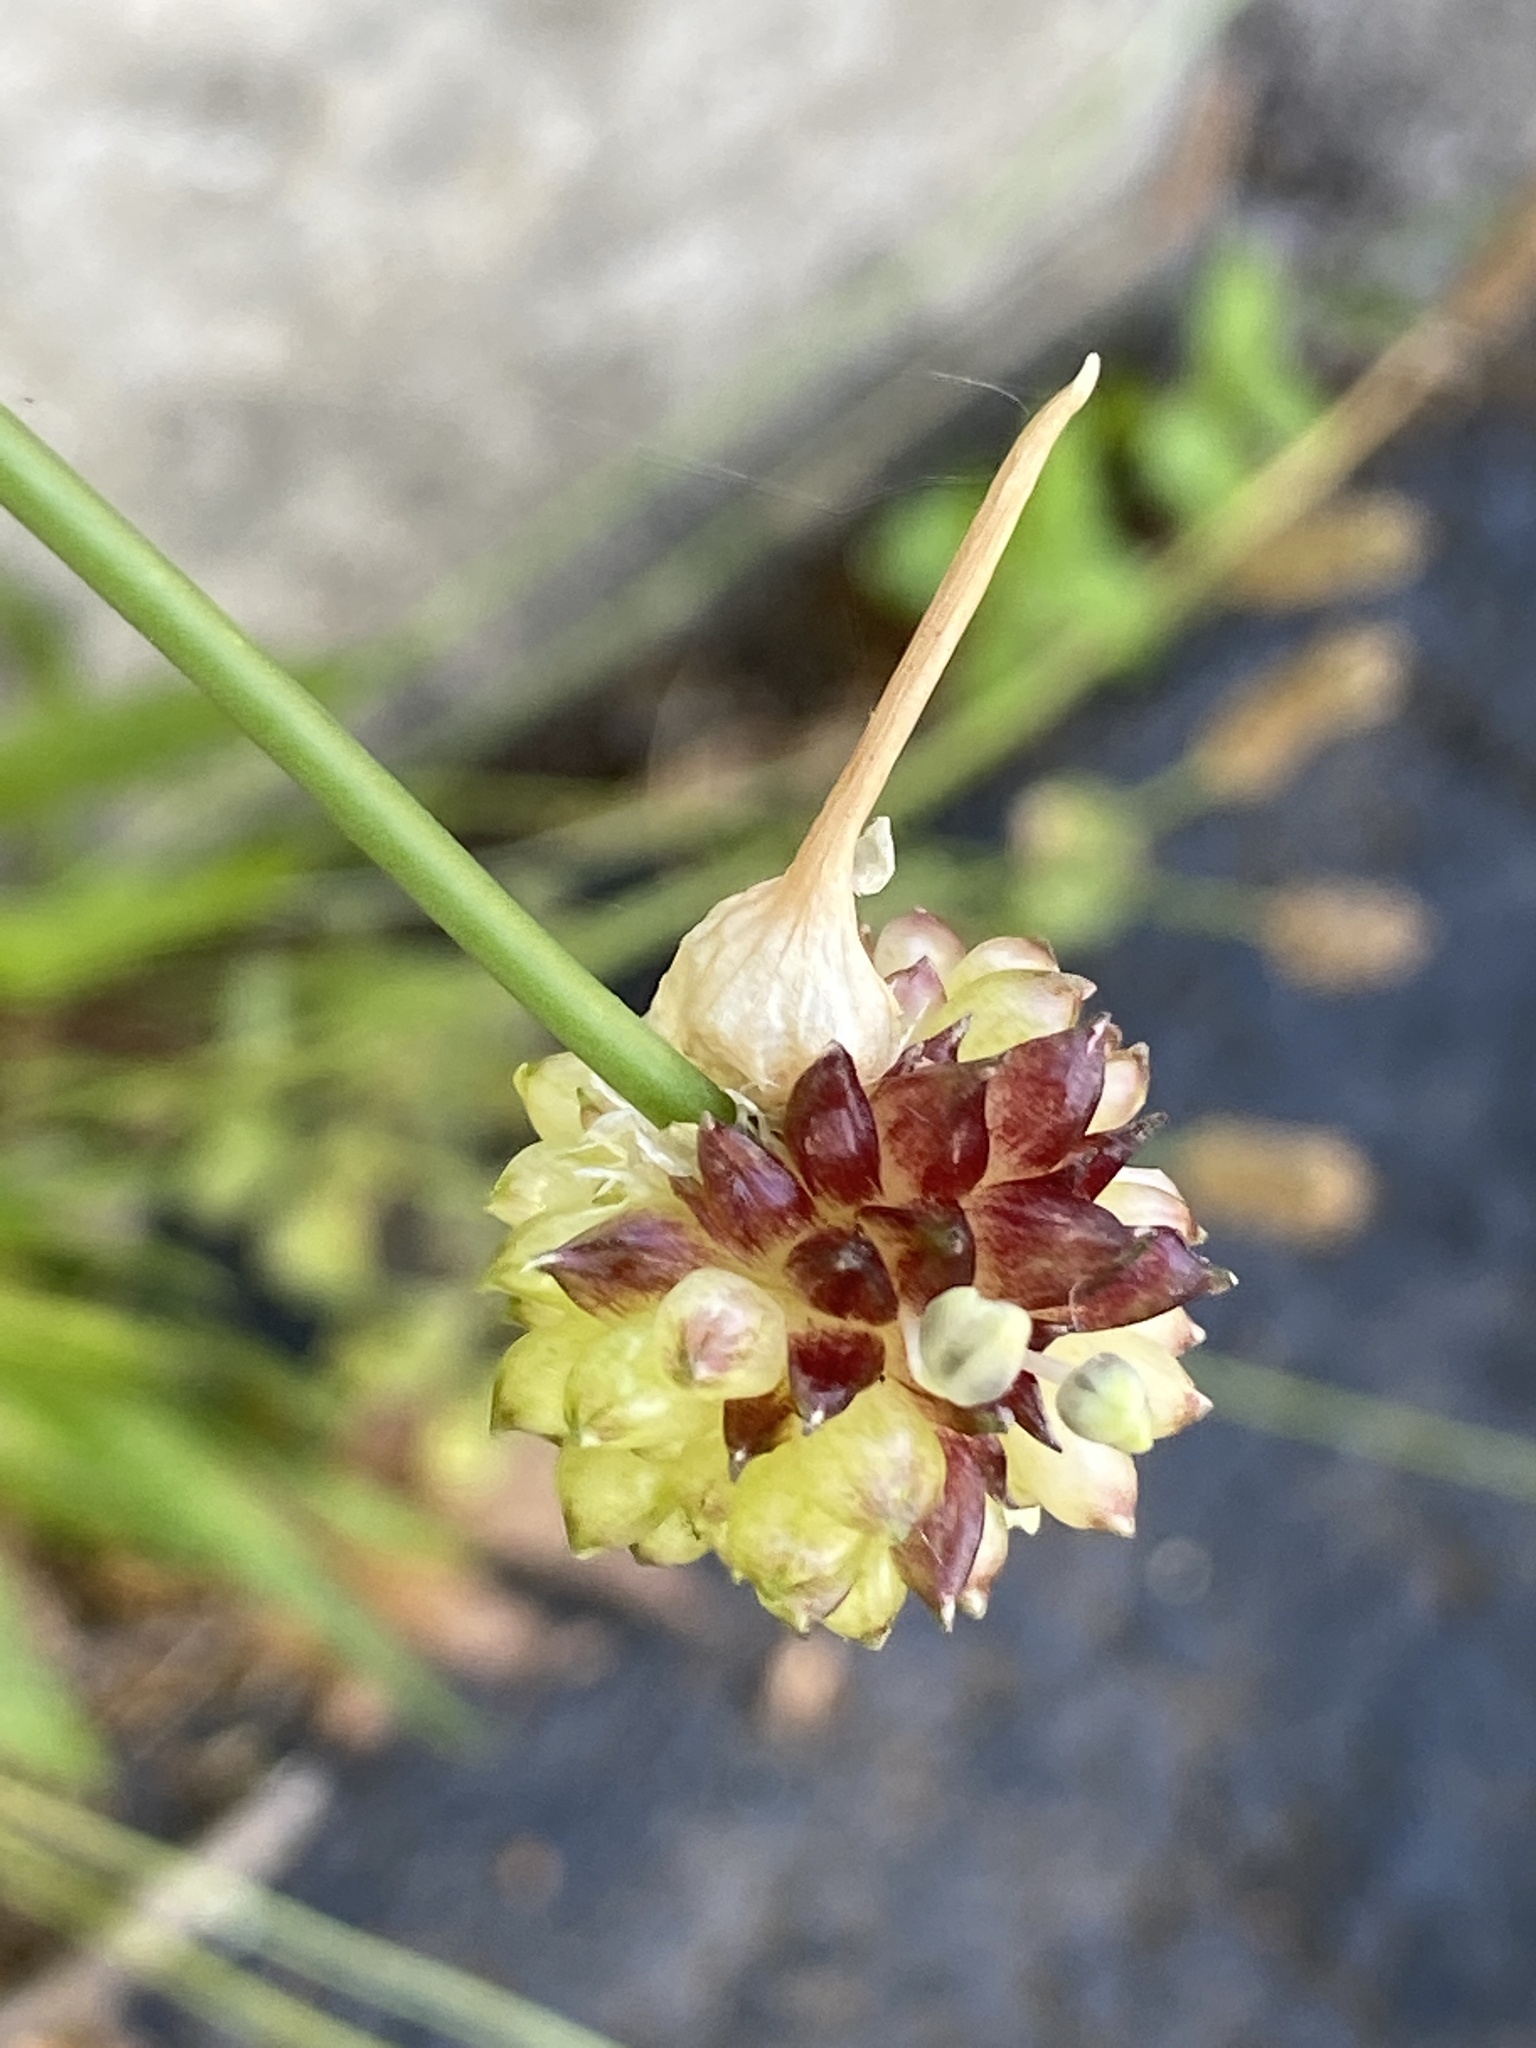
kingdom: Plantae
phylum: Tracheophyta
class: Liliopsida
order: Asparagales
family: Amaryllidaceae
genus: Allium
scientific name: Allium vineale
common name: Crow garlic
